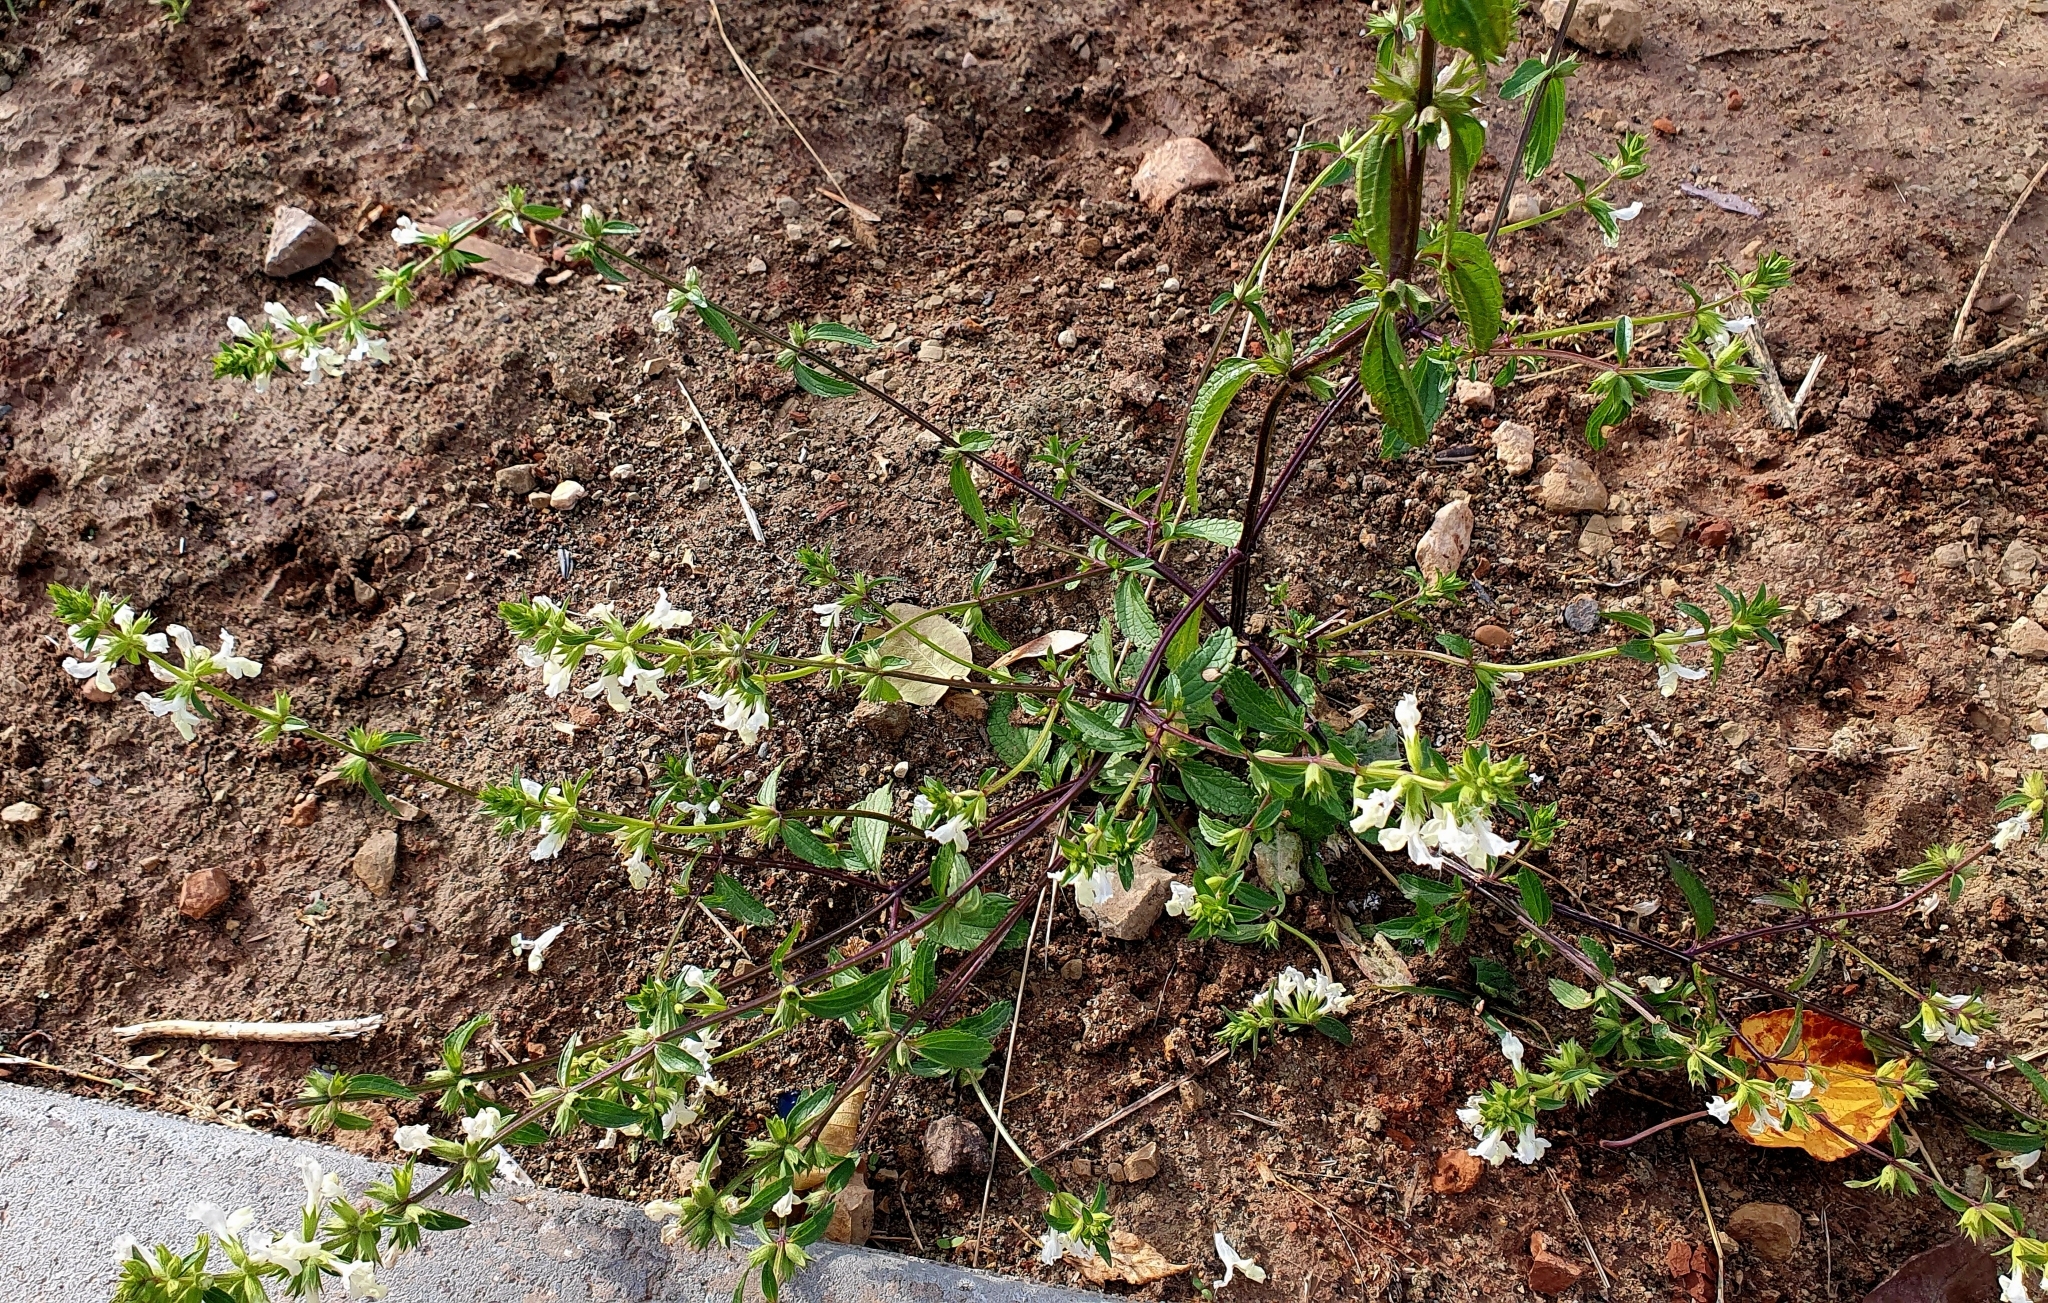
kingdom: Plantae
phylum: Tracheophyta
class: Magnoliopsida
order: Lamiales
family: Lamiaceae
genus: Stachys
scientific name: Stachys annua
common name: Annual yellow-woundwort
